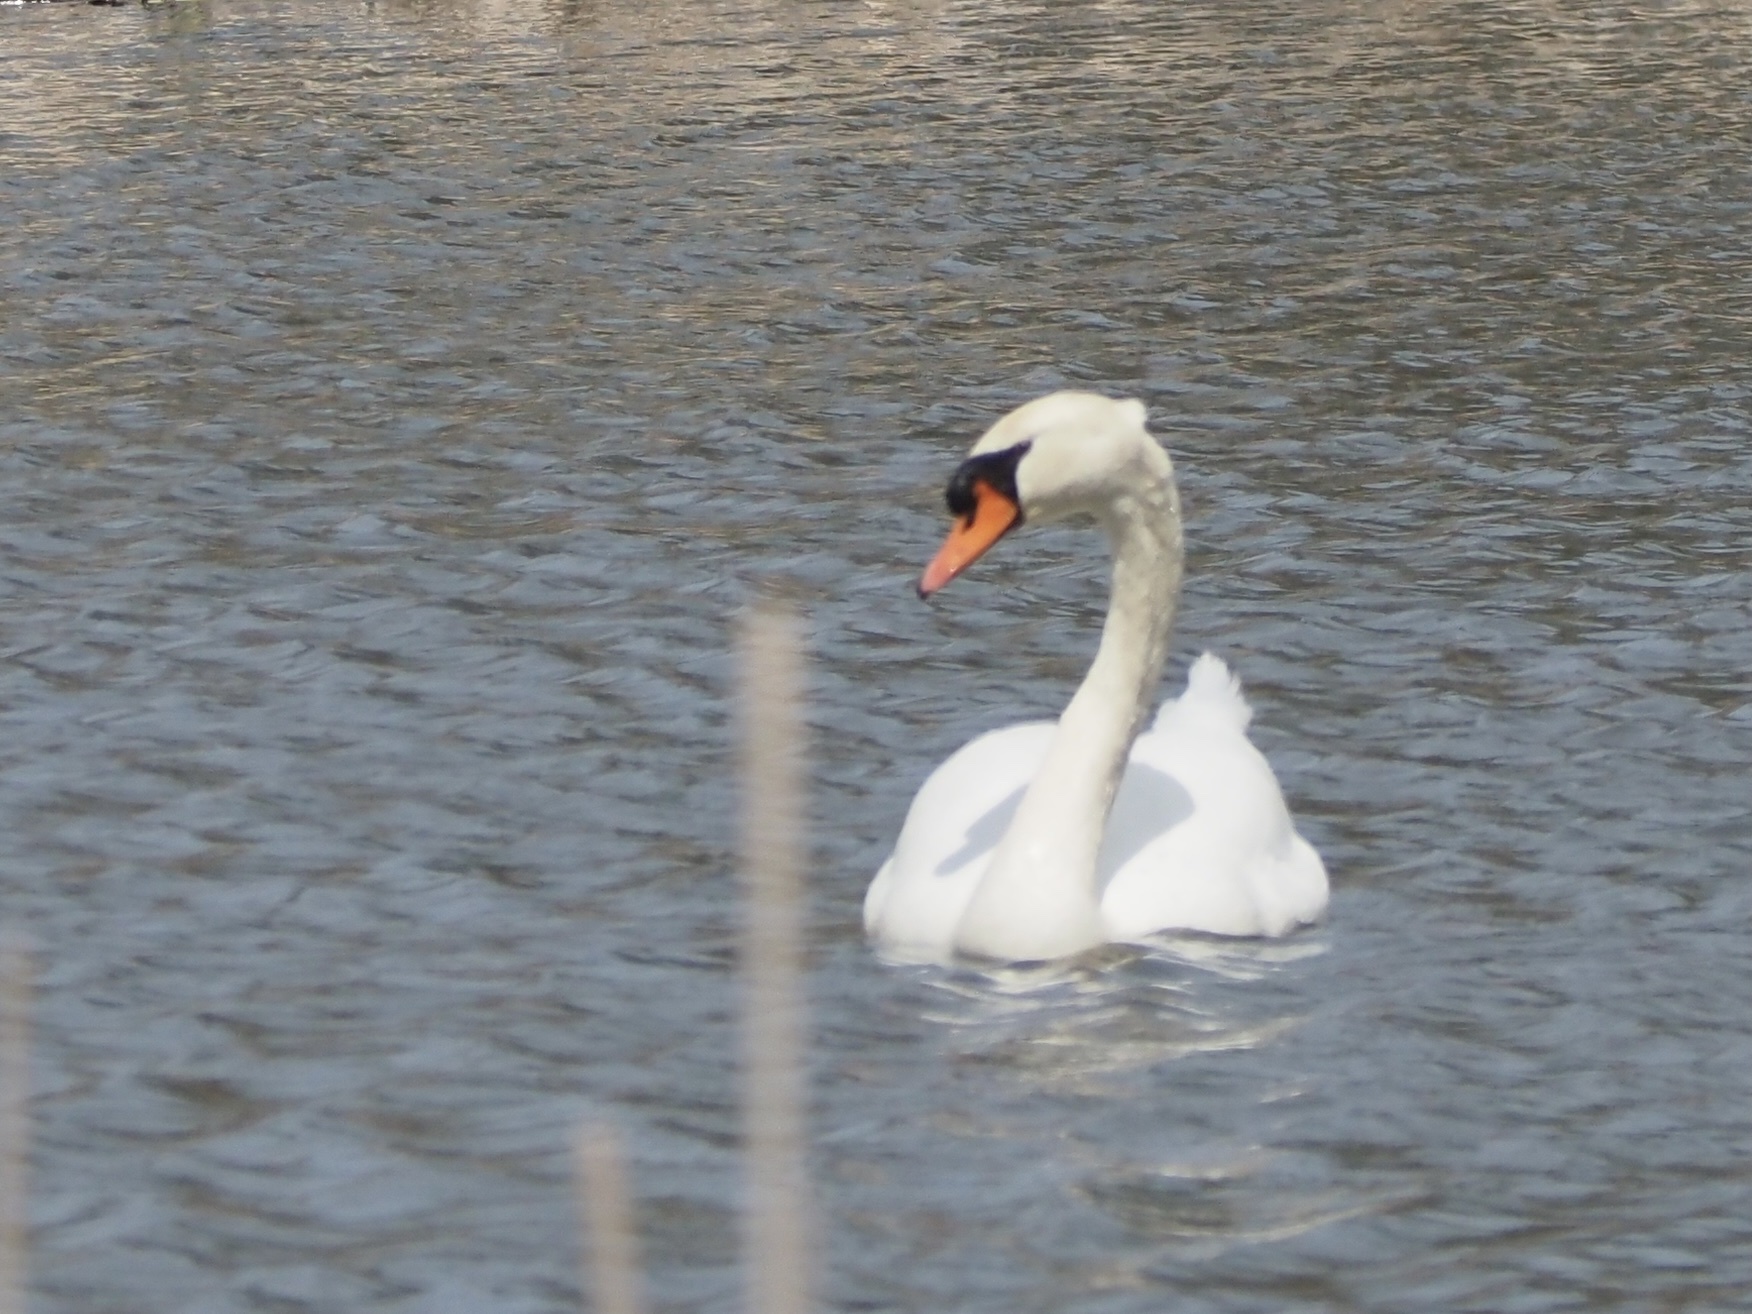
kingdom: Animalia
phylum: Chordata
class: Aves
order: Anseriformes
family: Anatidae
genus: Cygnus
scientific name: Cygnus olor
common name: Mute swan
